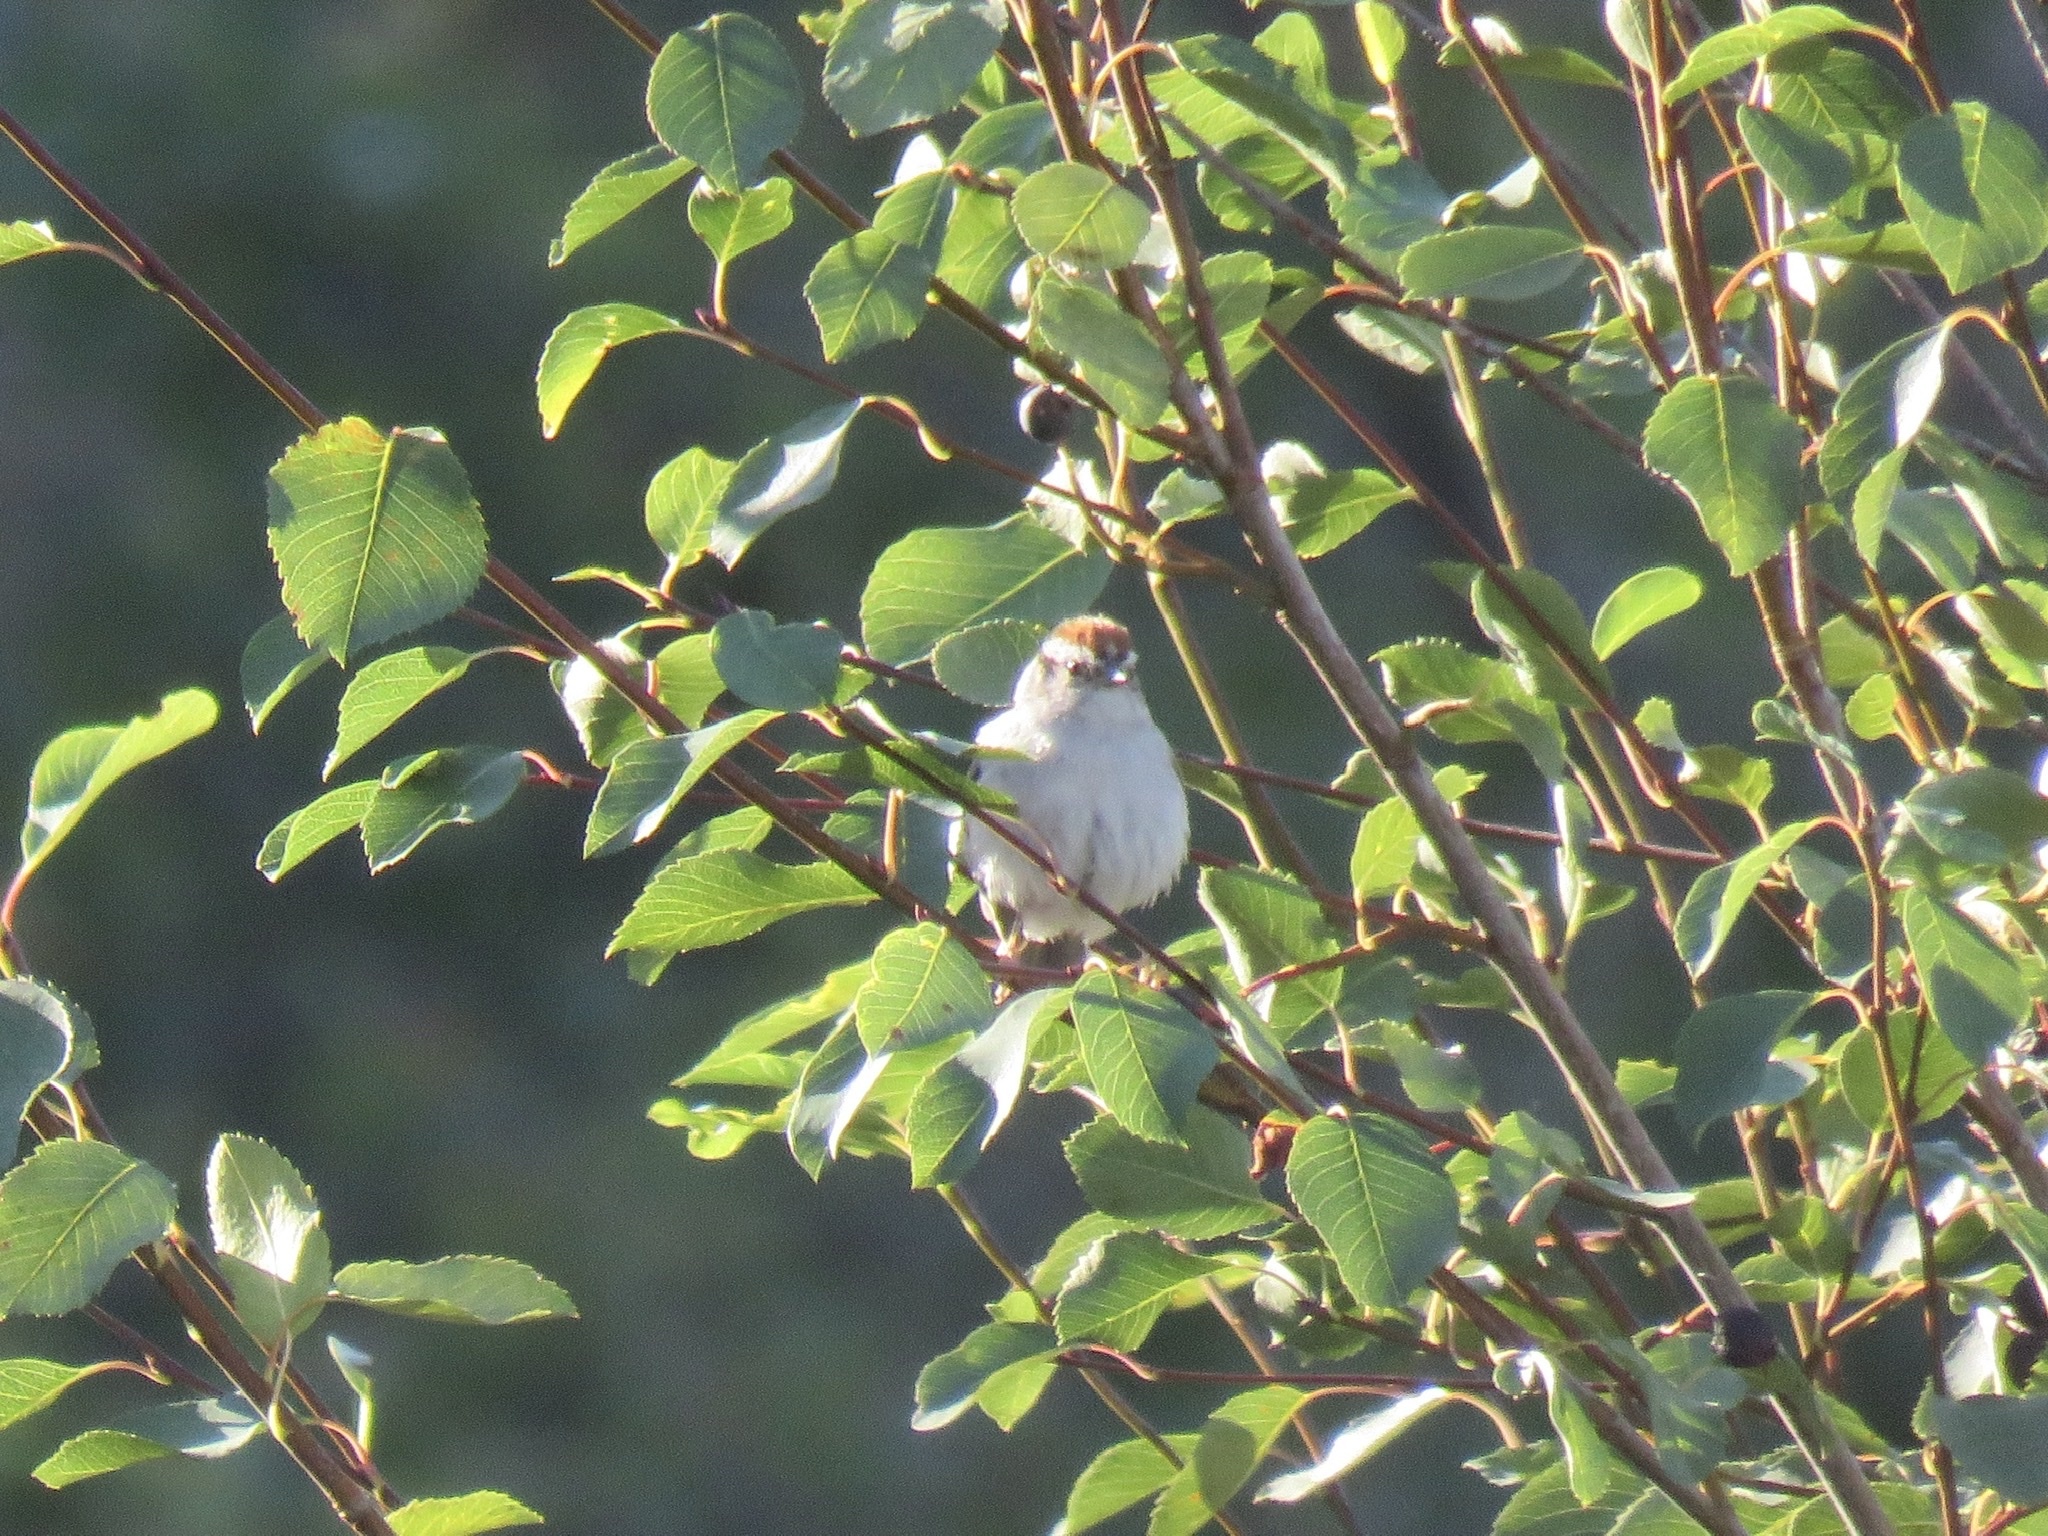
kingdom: Animalia
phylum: Chordata
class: Aves
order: Passeriformes
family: Passerellidae
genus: Spizella
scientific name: Spizella passerina
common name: Chipping sparrow
